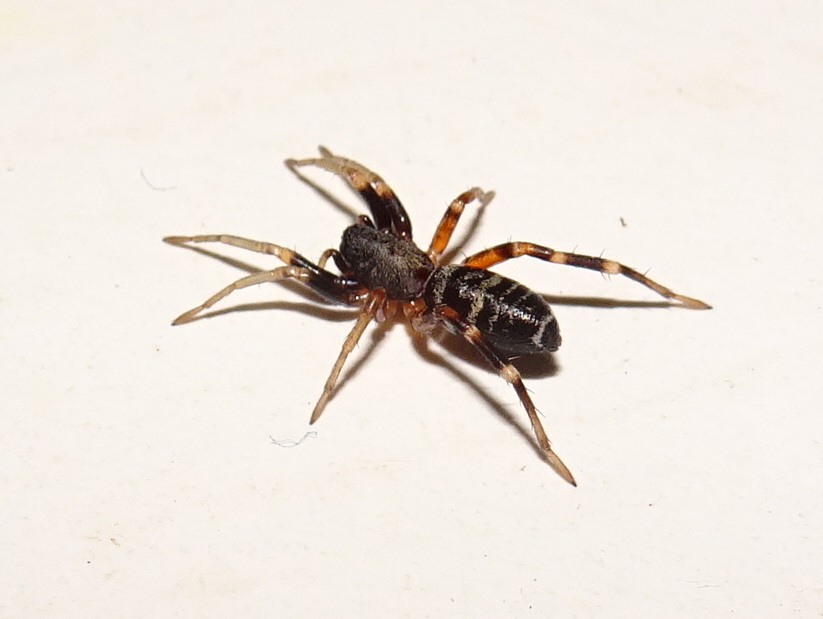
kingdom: Animalia
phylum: Arthropoda
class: Arachnida
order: Araneae
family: Corinnidae
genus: Castianeira
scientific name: Castianeira longipalpa
